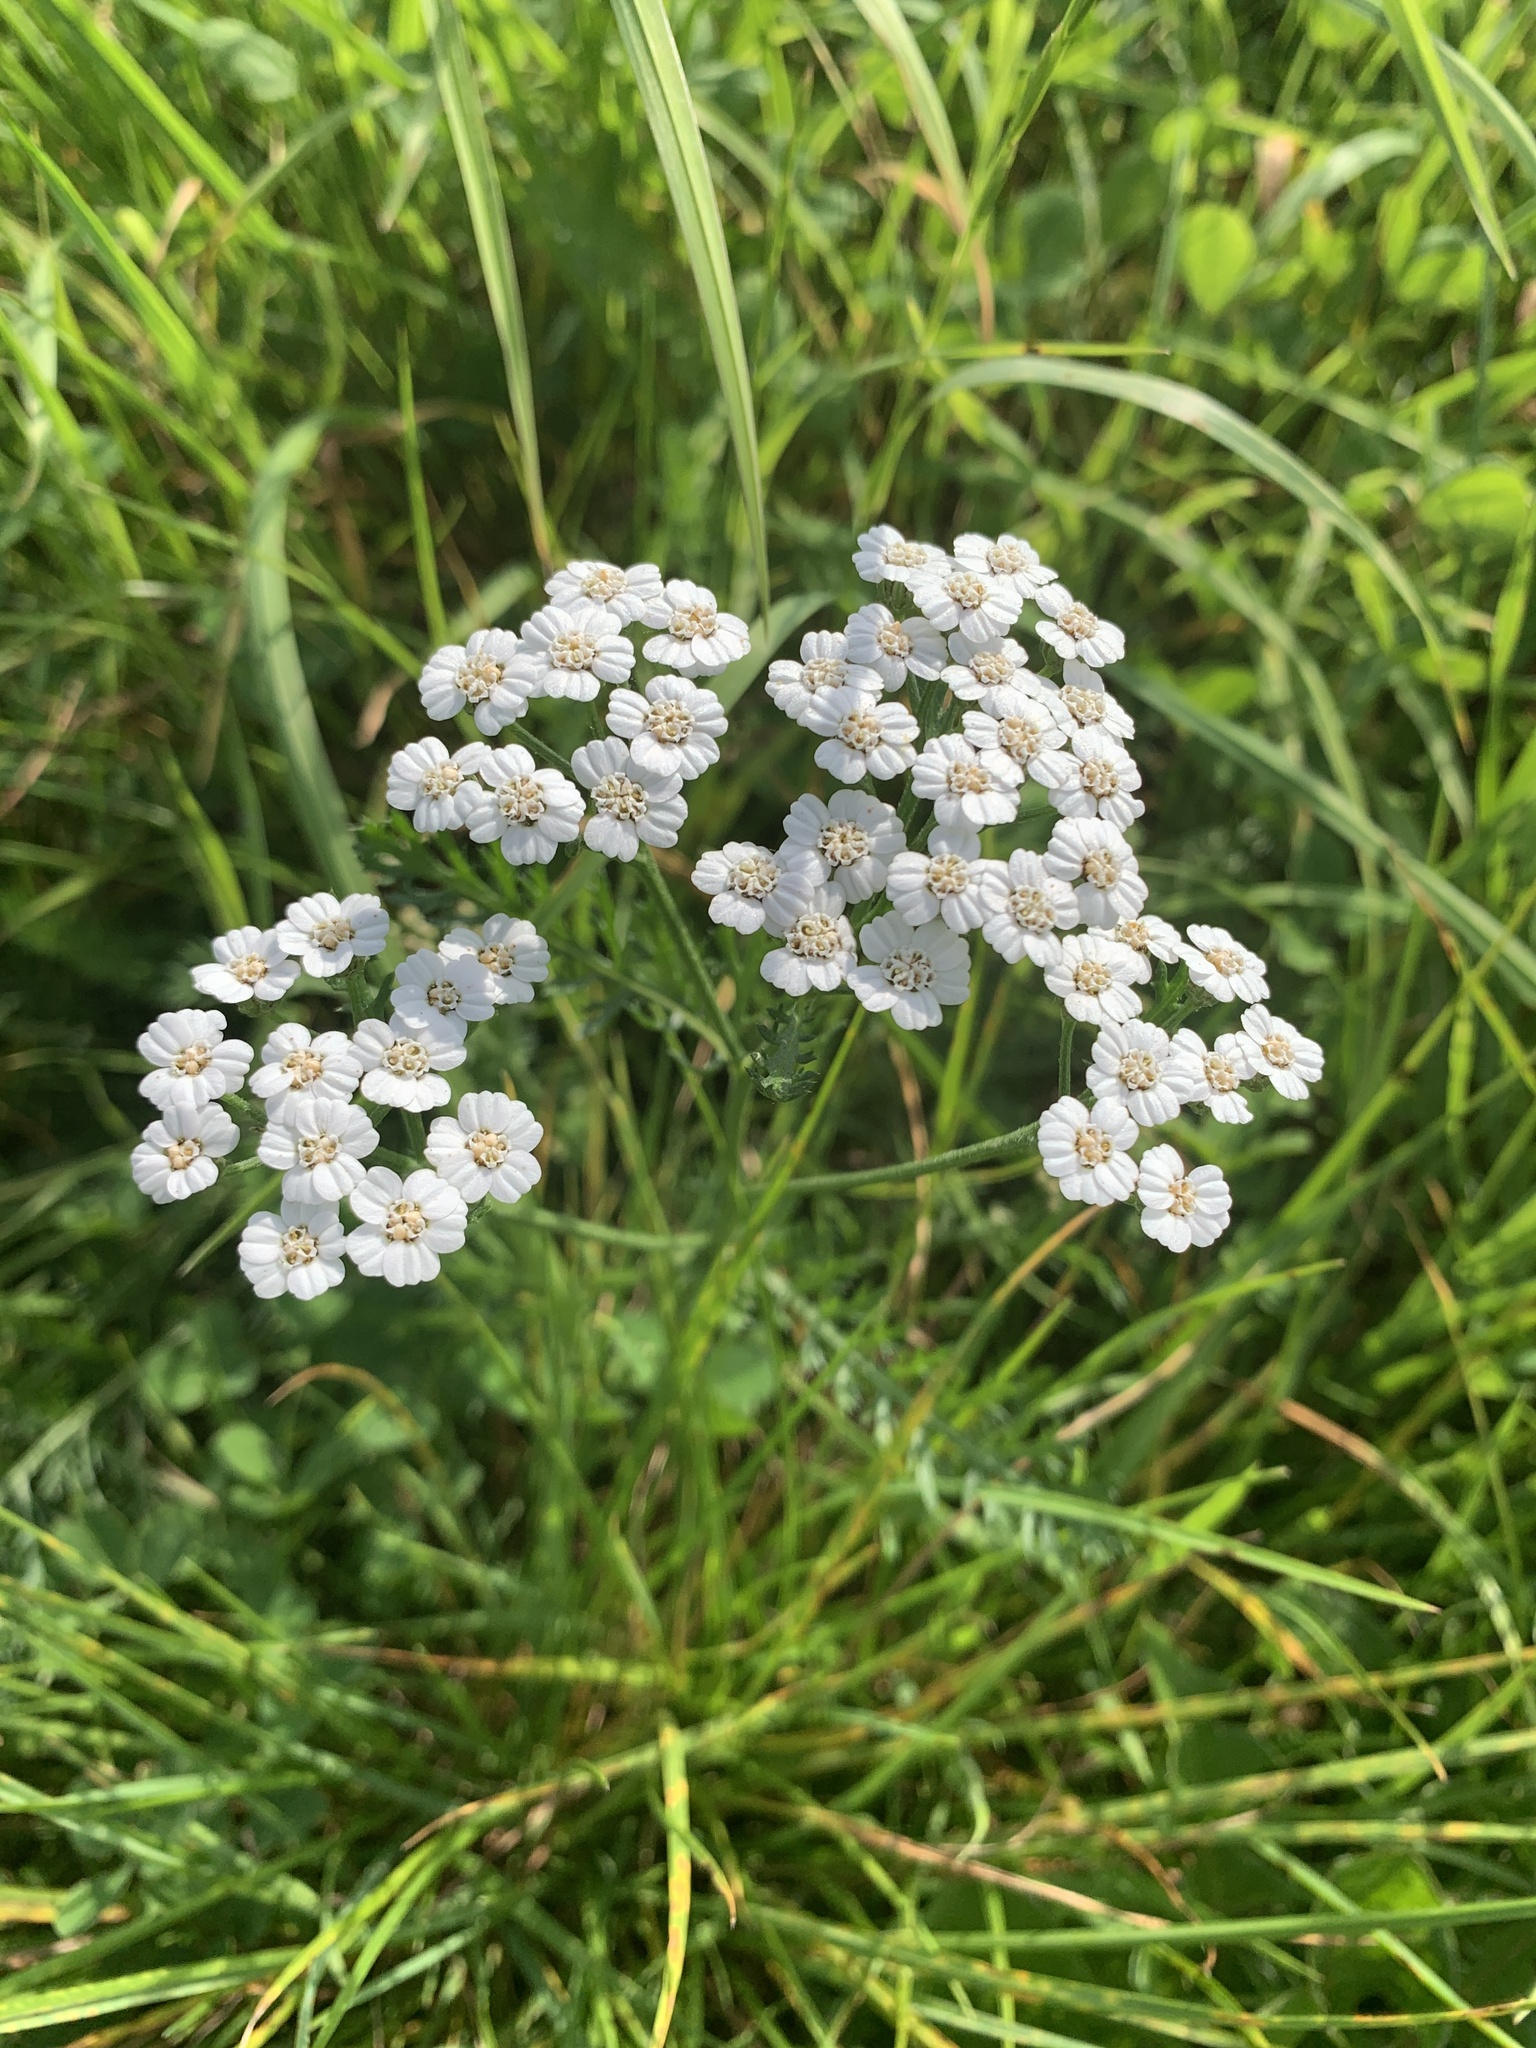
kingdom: Plantae
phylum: Tracheophyta
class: Magnoliopsida
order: Asterales
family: Asteraceae
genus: Achillea
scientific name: Achillea millefolium
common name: Yarrow
